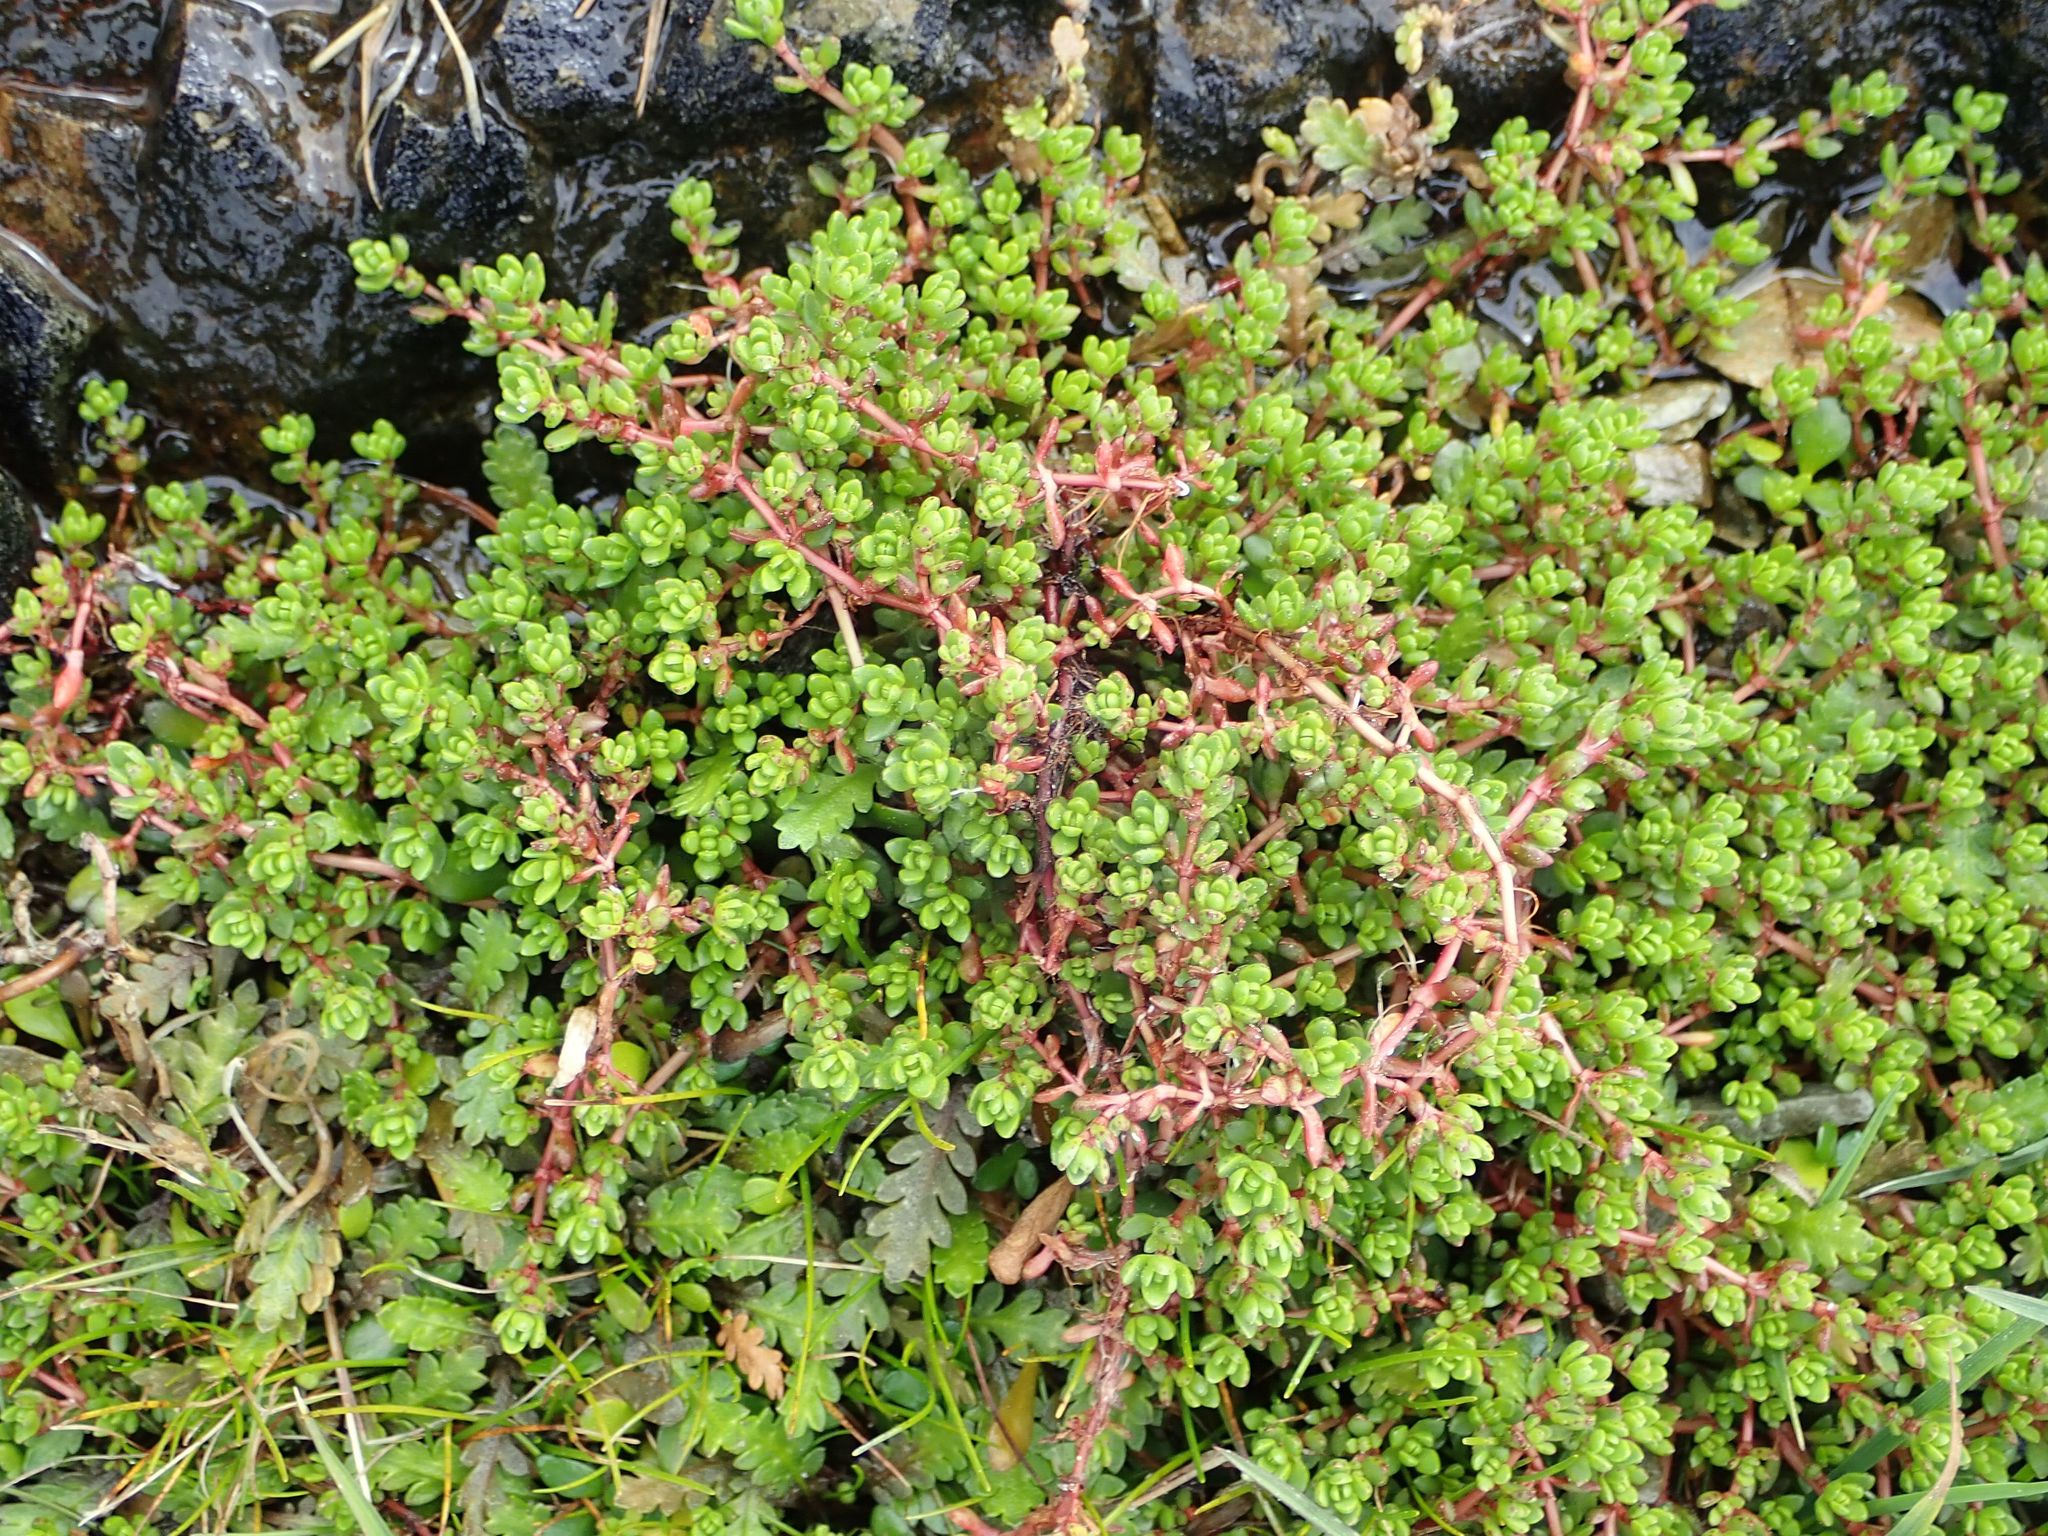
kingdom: Plantae
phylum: Tracheophyta
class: Magnoliopsida
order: Saxifragales
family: Crassulaceae
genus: Crassula
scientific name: Crassula moschata
